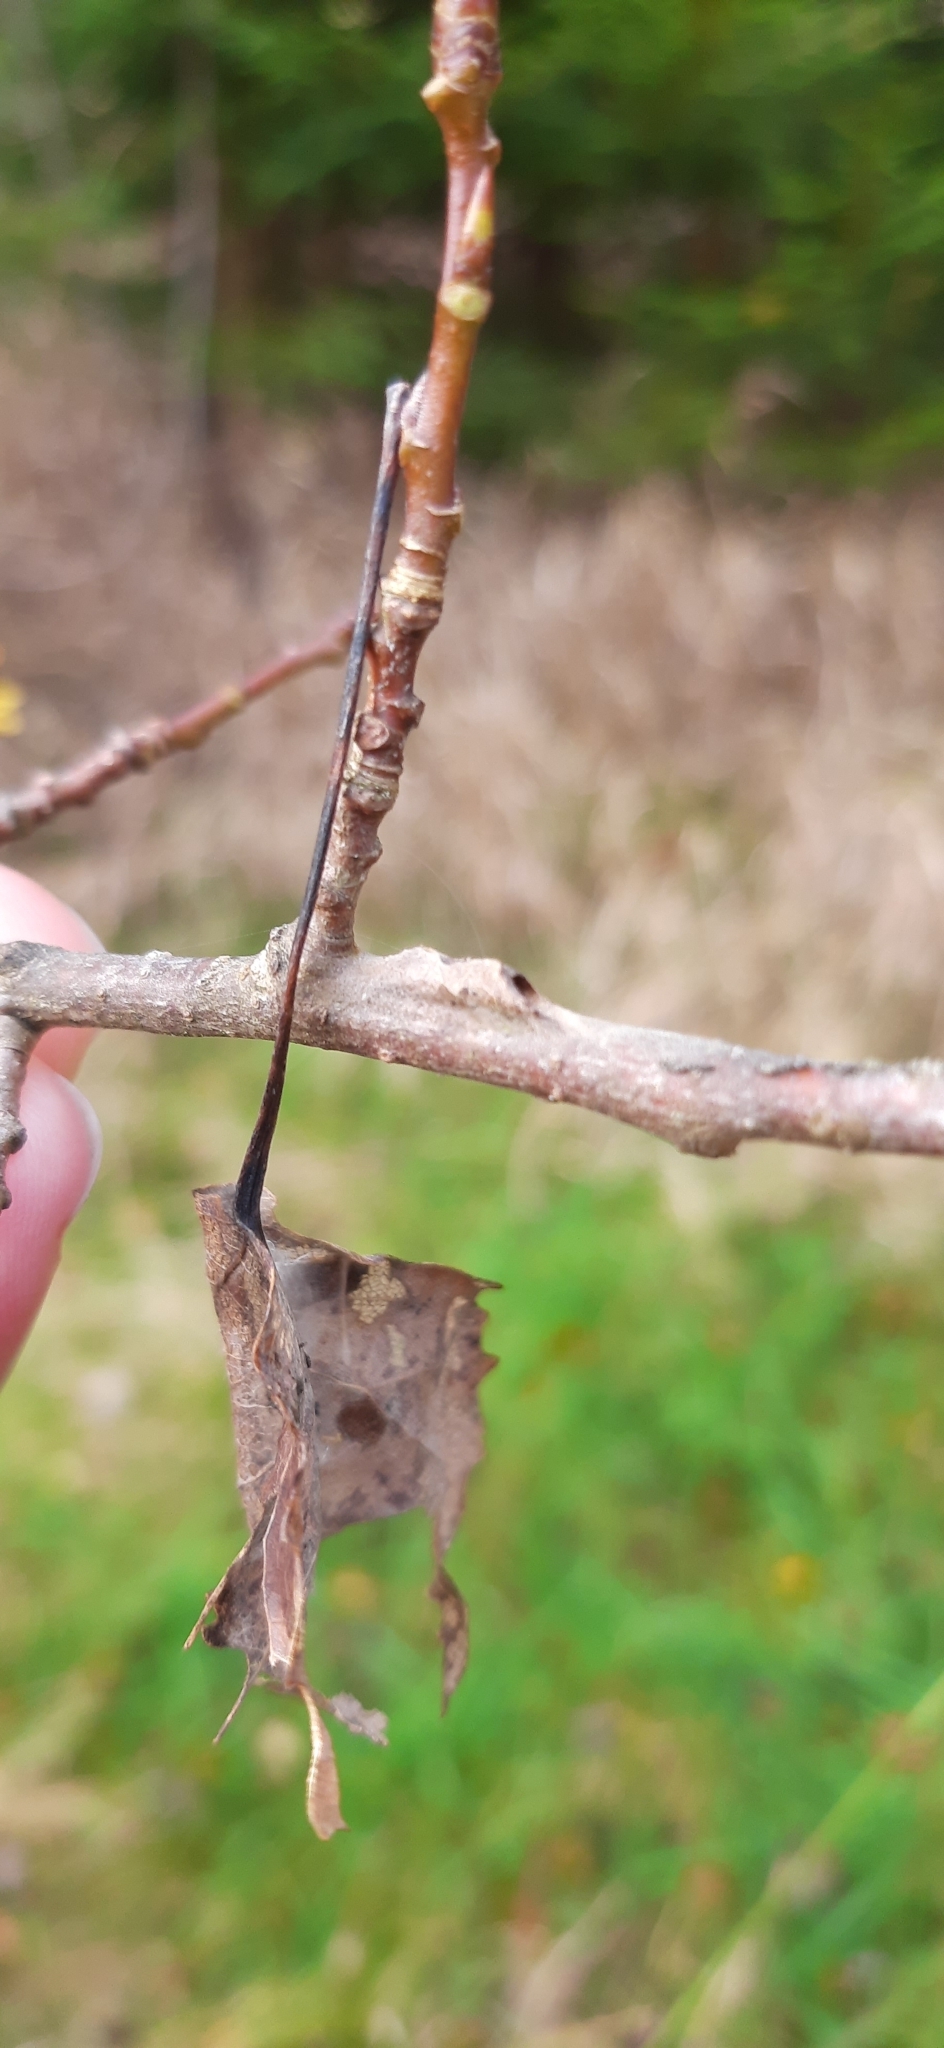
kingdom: Animalia
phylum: Arthropoda
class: Insecta
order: Lepidoptera
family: Nymphalidae
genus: Limenitis
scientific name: Limenitis populi
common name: Poplar admiral
